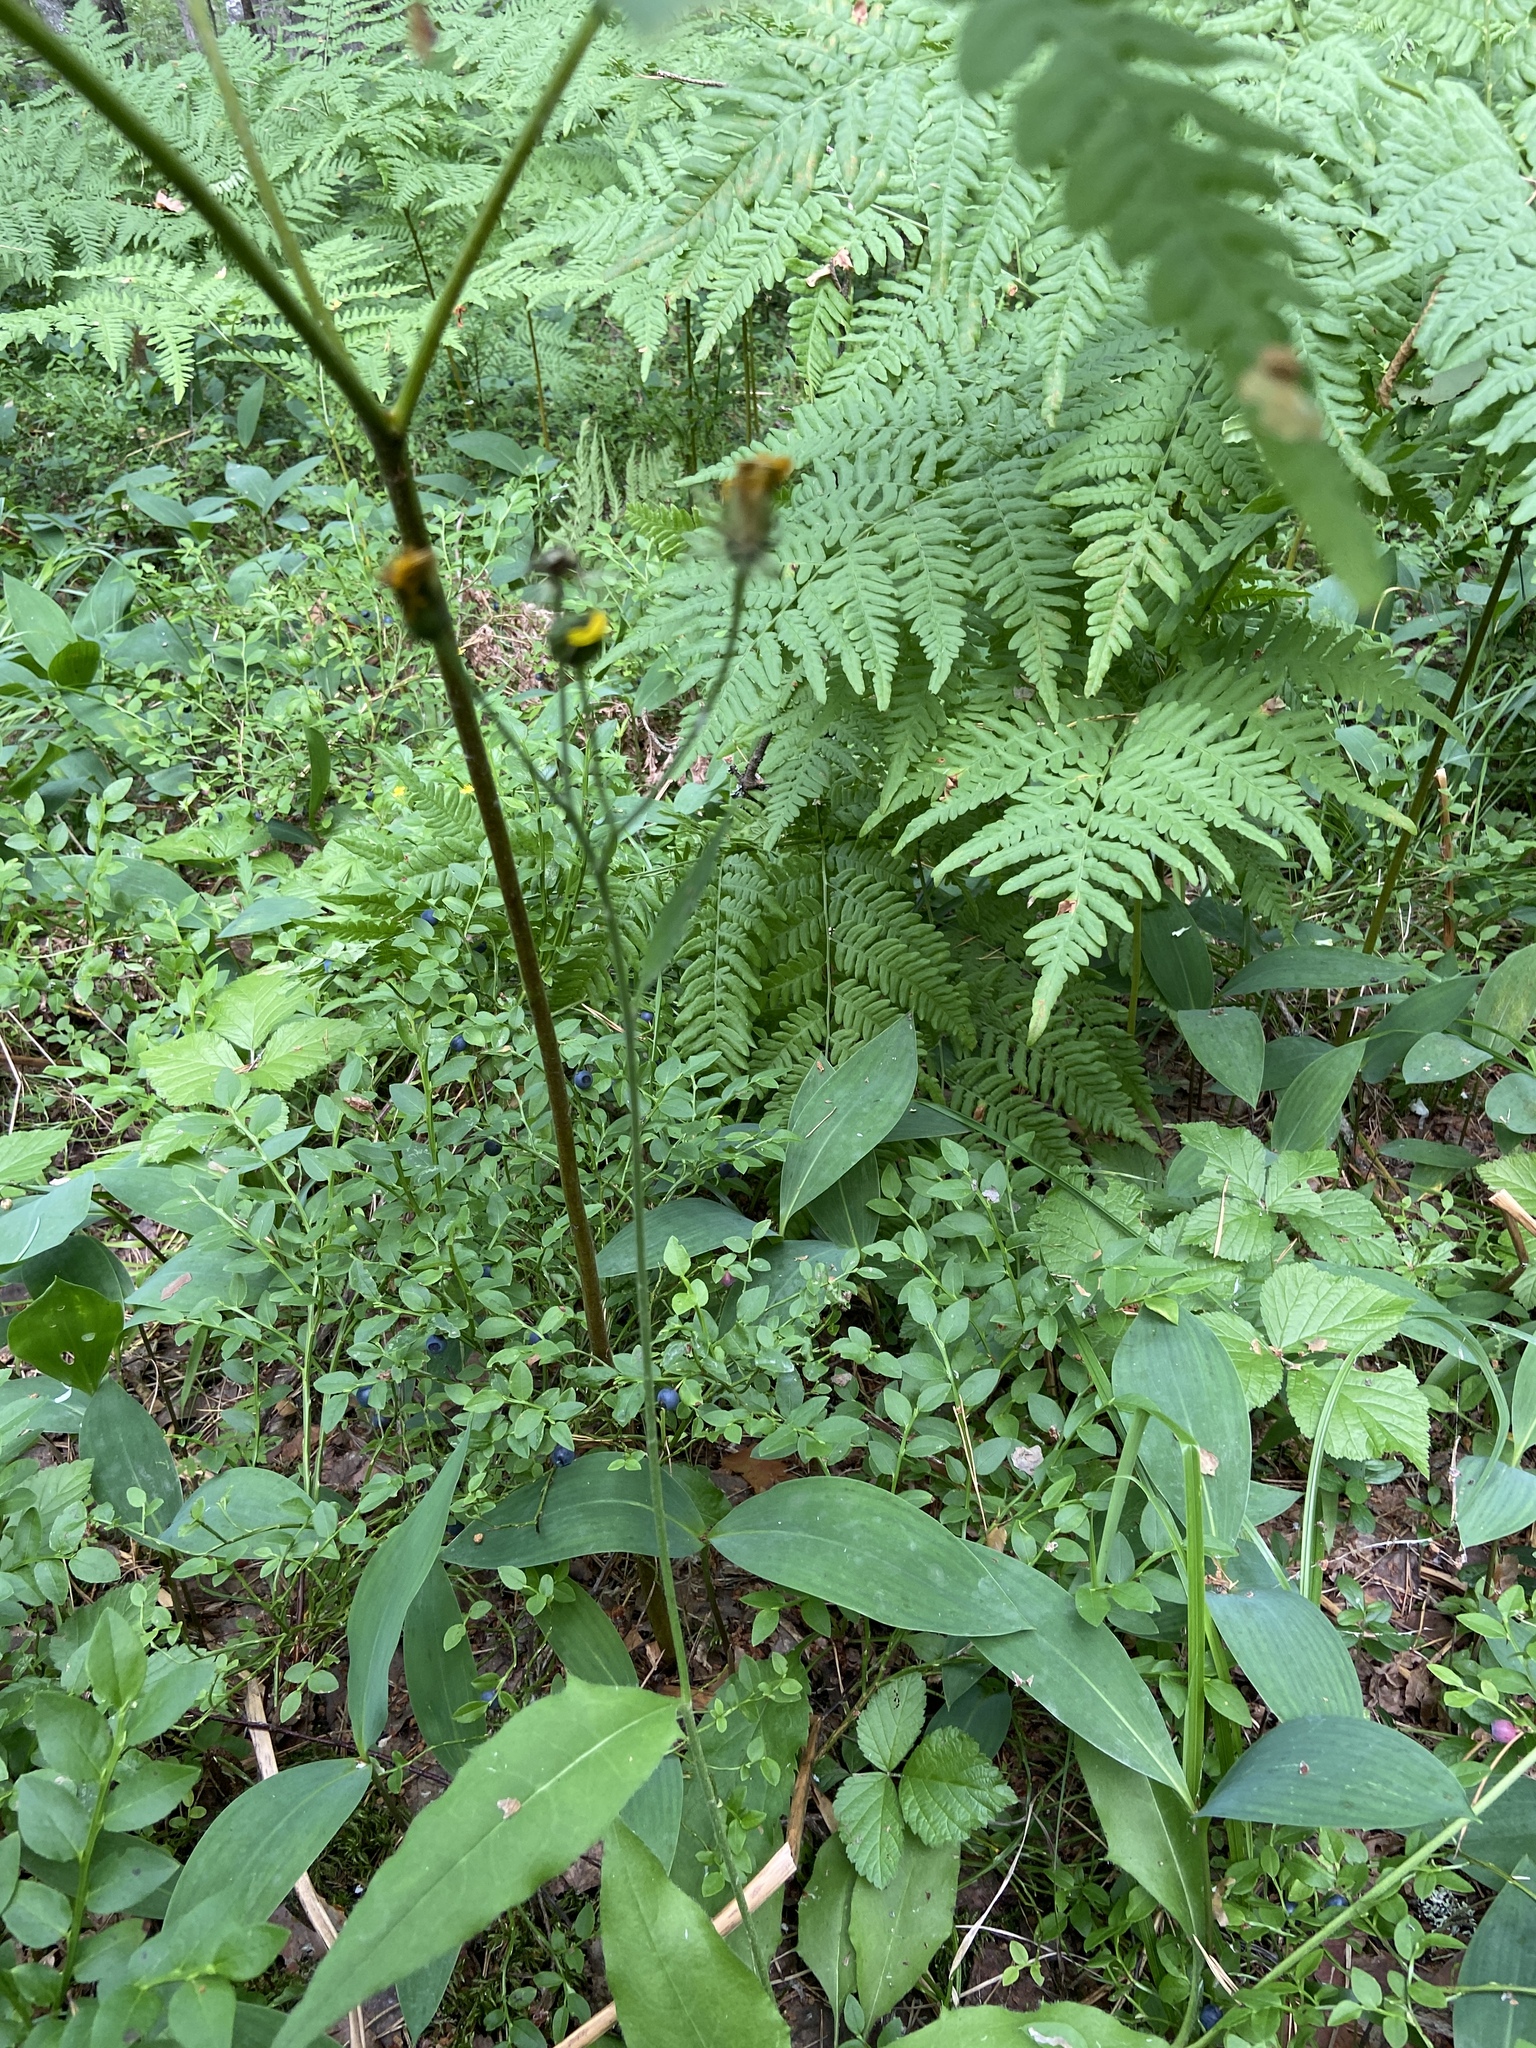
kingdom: Plantae
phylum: Tracheophyta
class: Magnoliopsida
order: Asterales
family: Asteraceae
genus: Hieracium
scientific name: Hieracium
